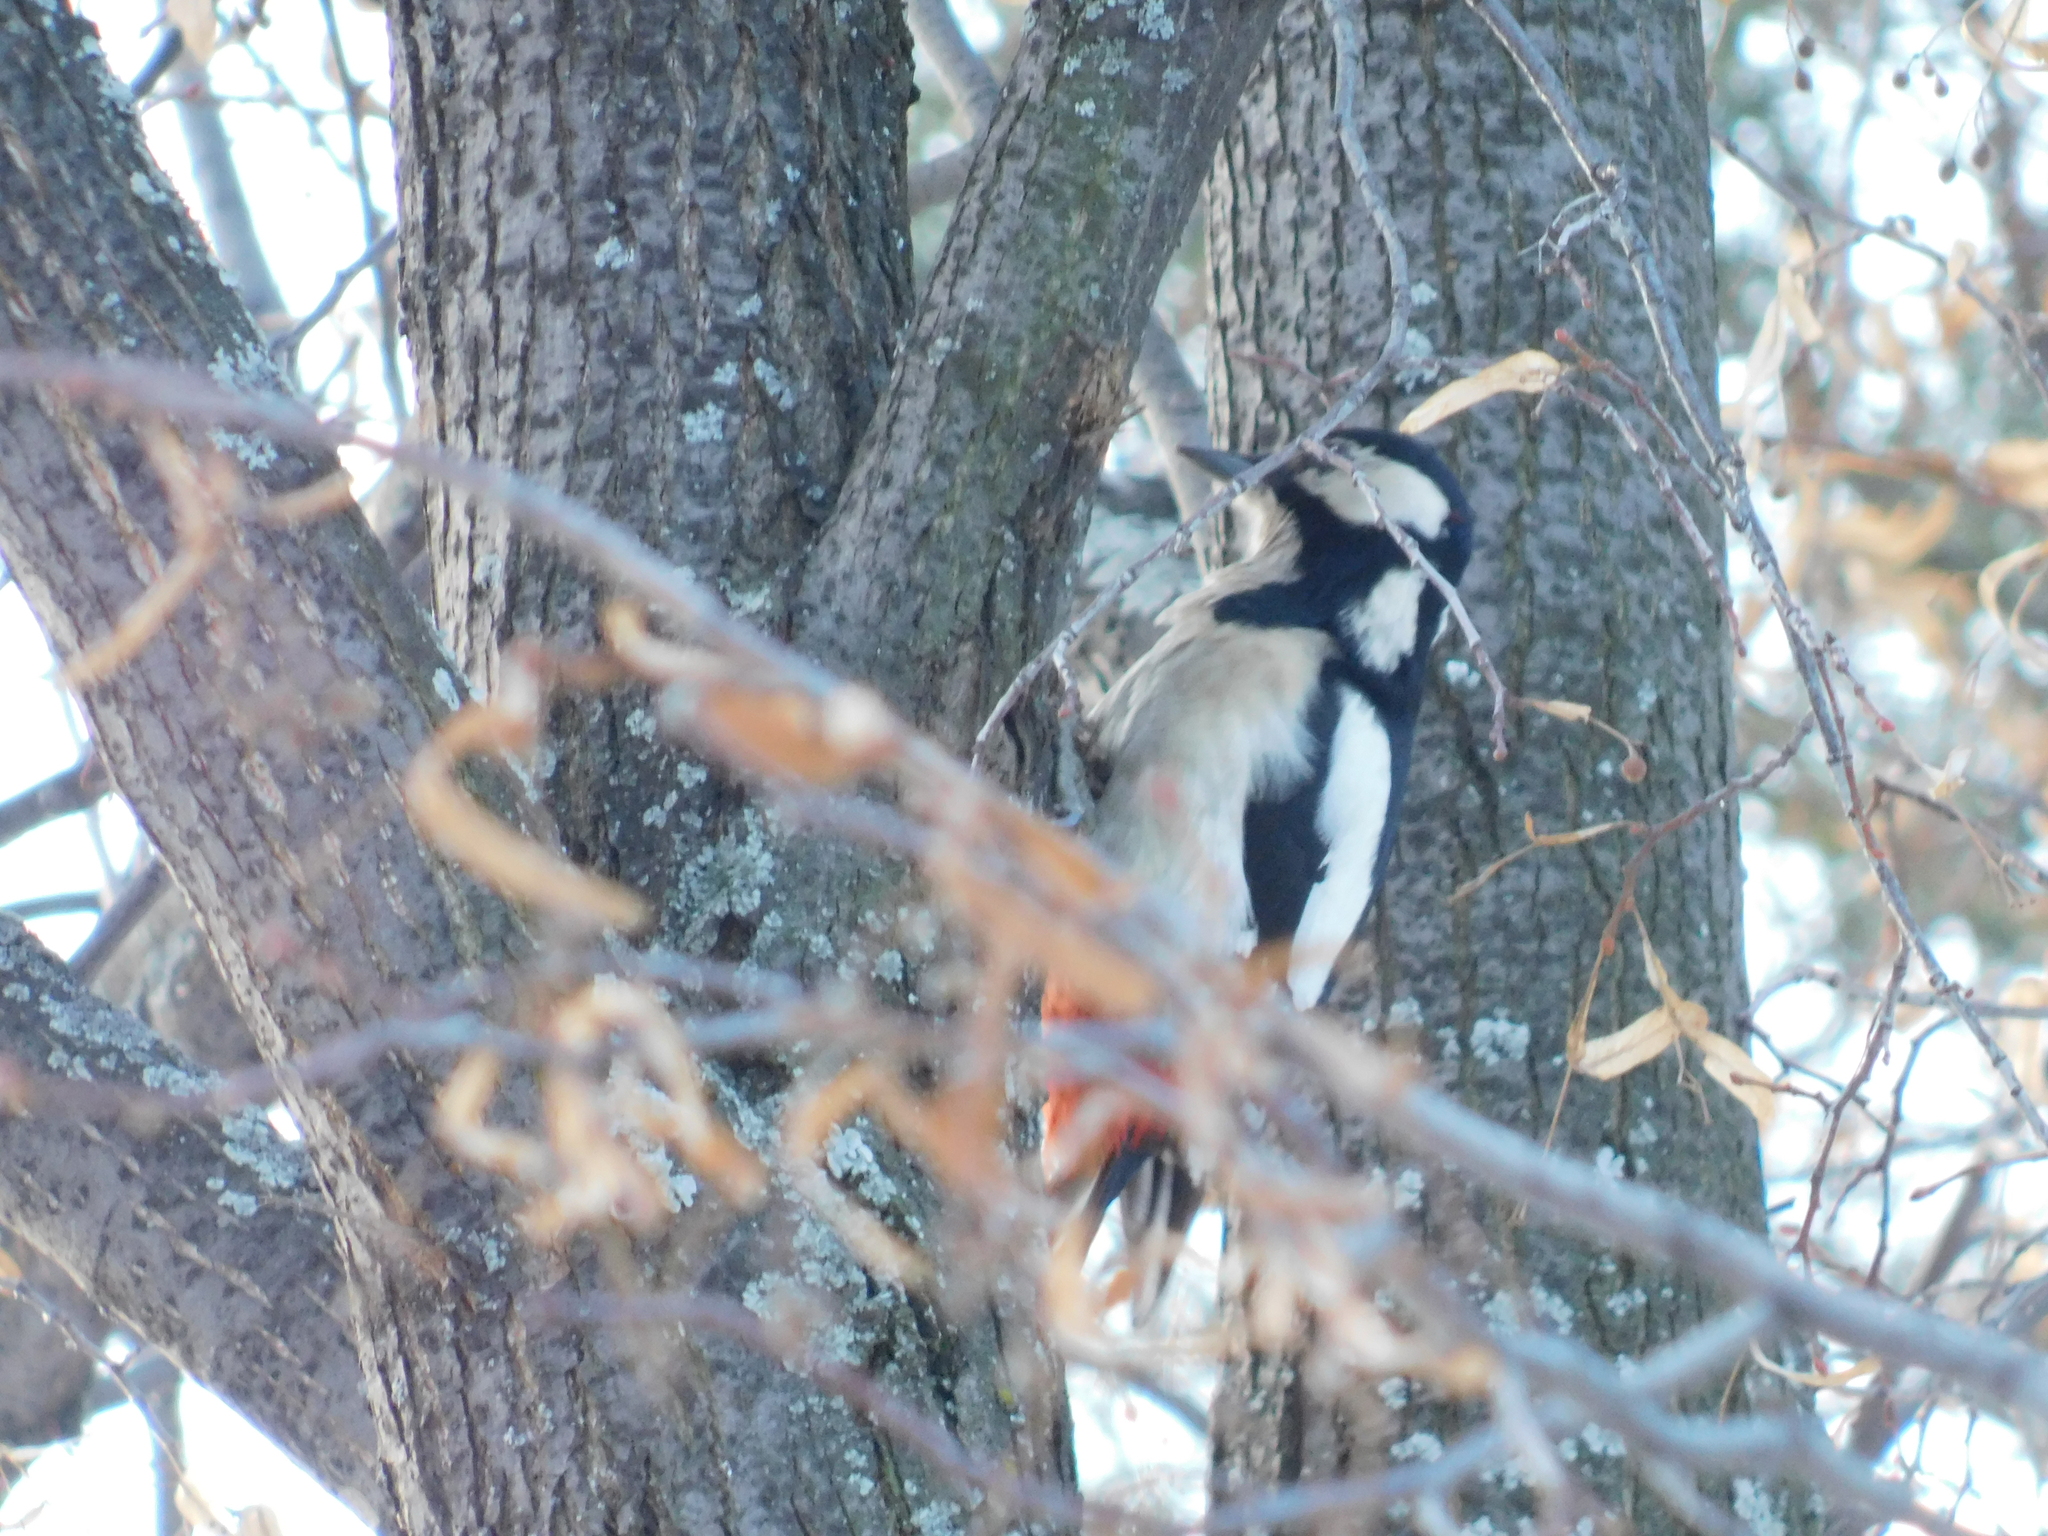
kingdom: Animalia
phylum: Chordata
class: Aves
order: Piciformes
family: Picidae
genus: Dendrocopos
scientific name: Dendrocopos major
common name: Great spotted woodpecker
